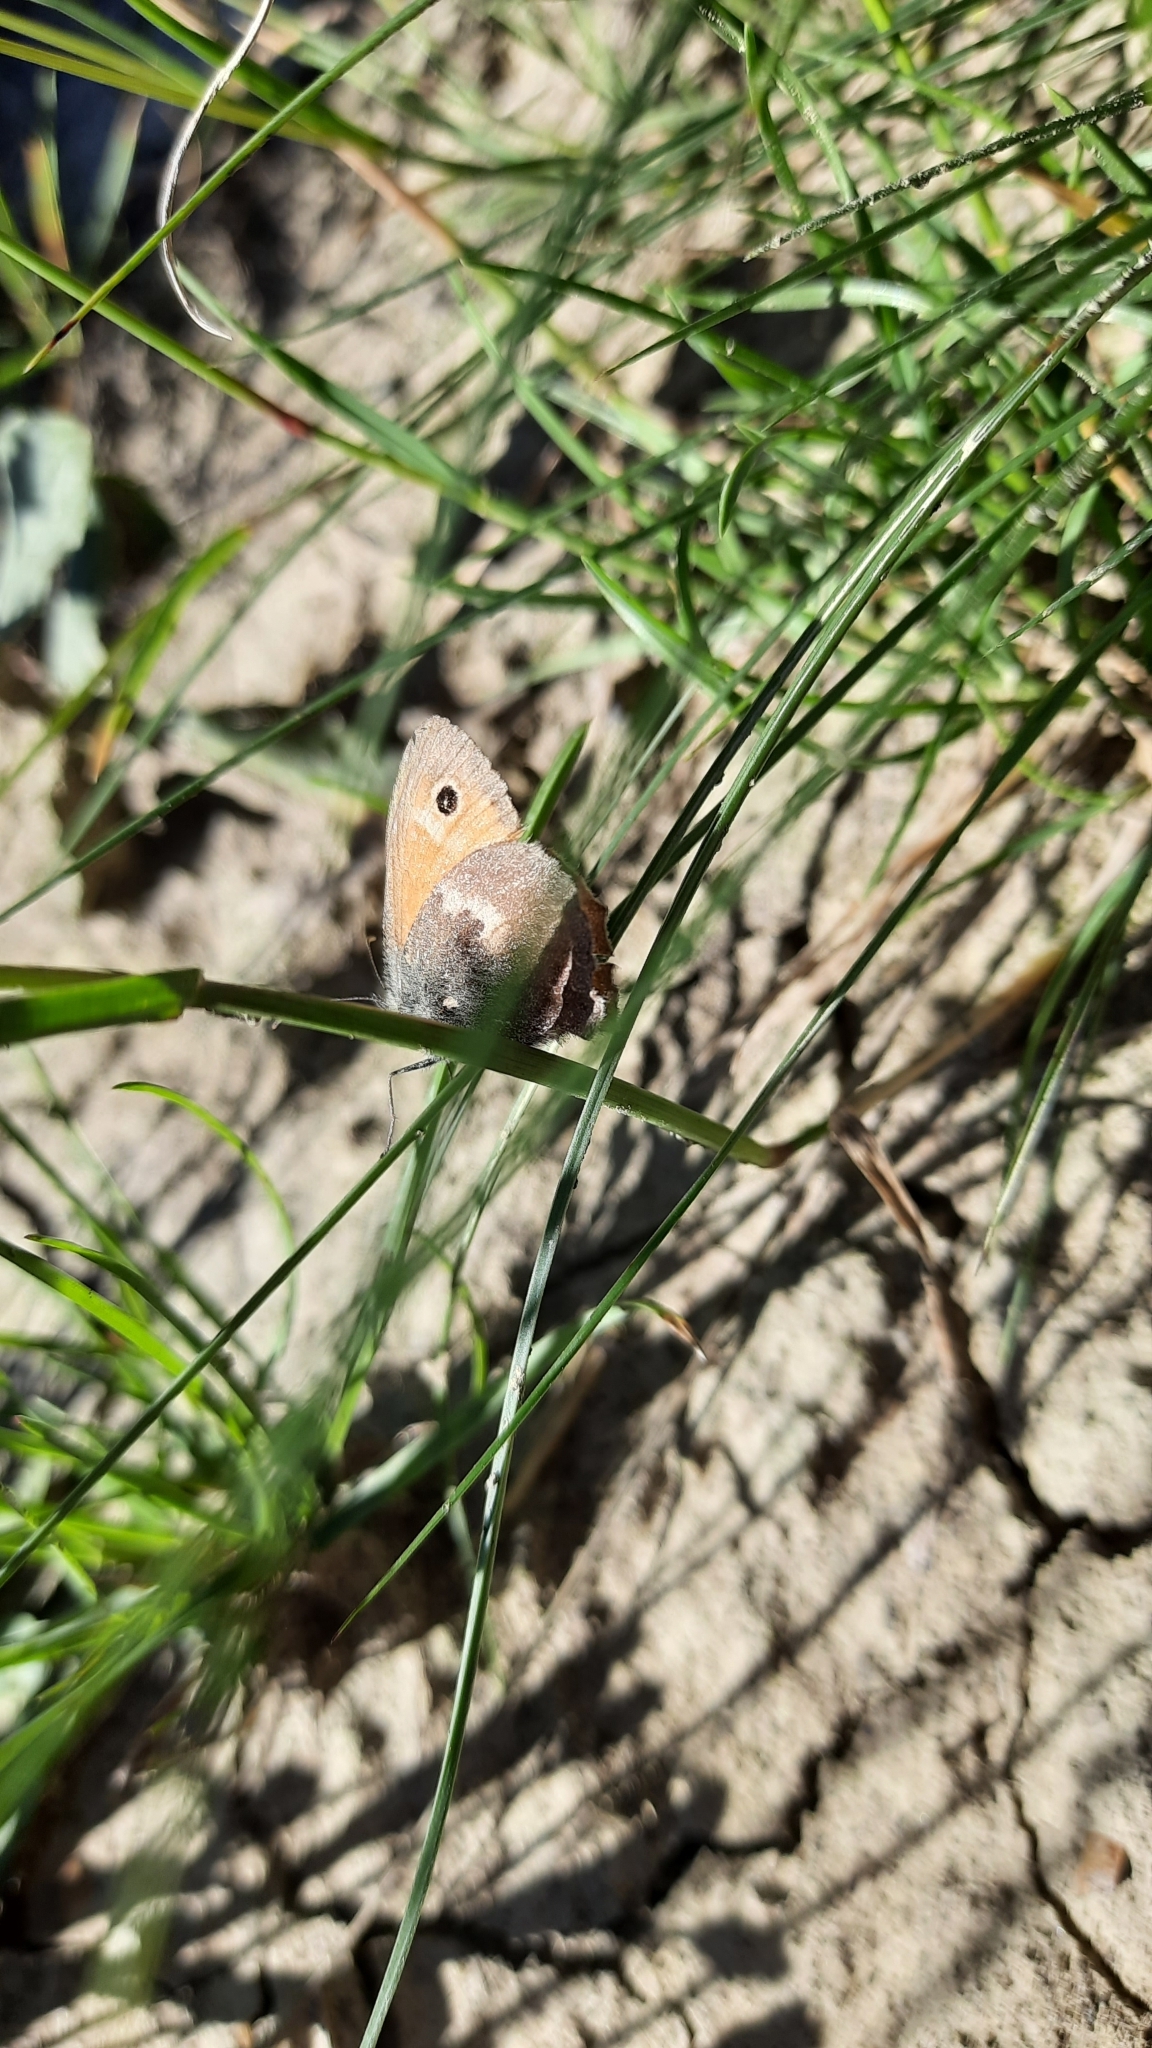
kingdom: Animalia
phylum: Arthropoda
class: Insecta
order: Lepidoptera
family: Nymphalidae
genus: Coenonympha
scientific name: Coenonympha pamphilus
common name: Small heath
